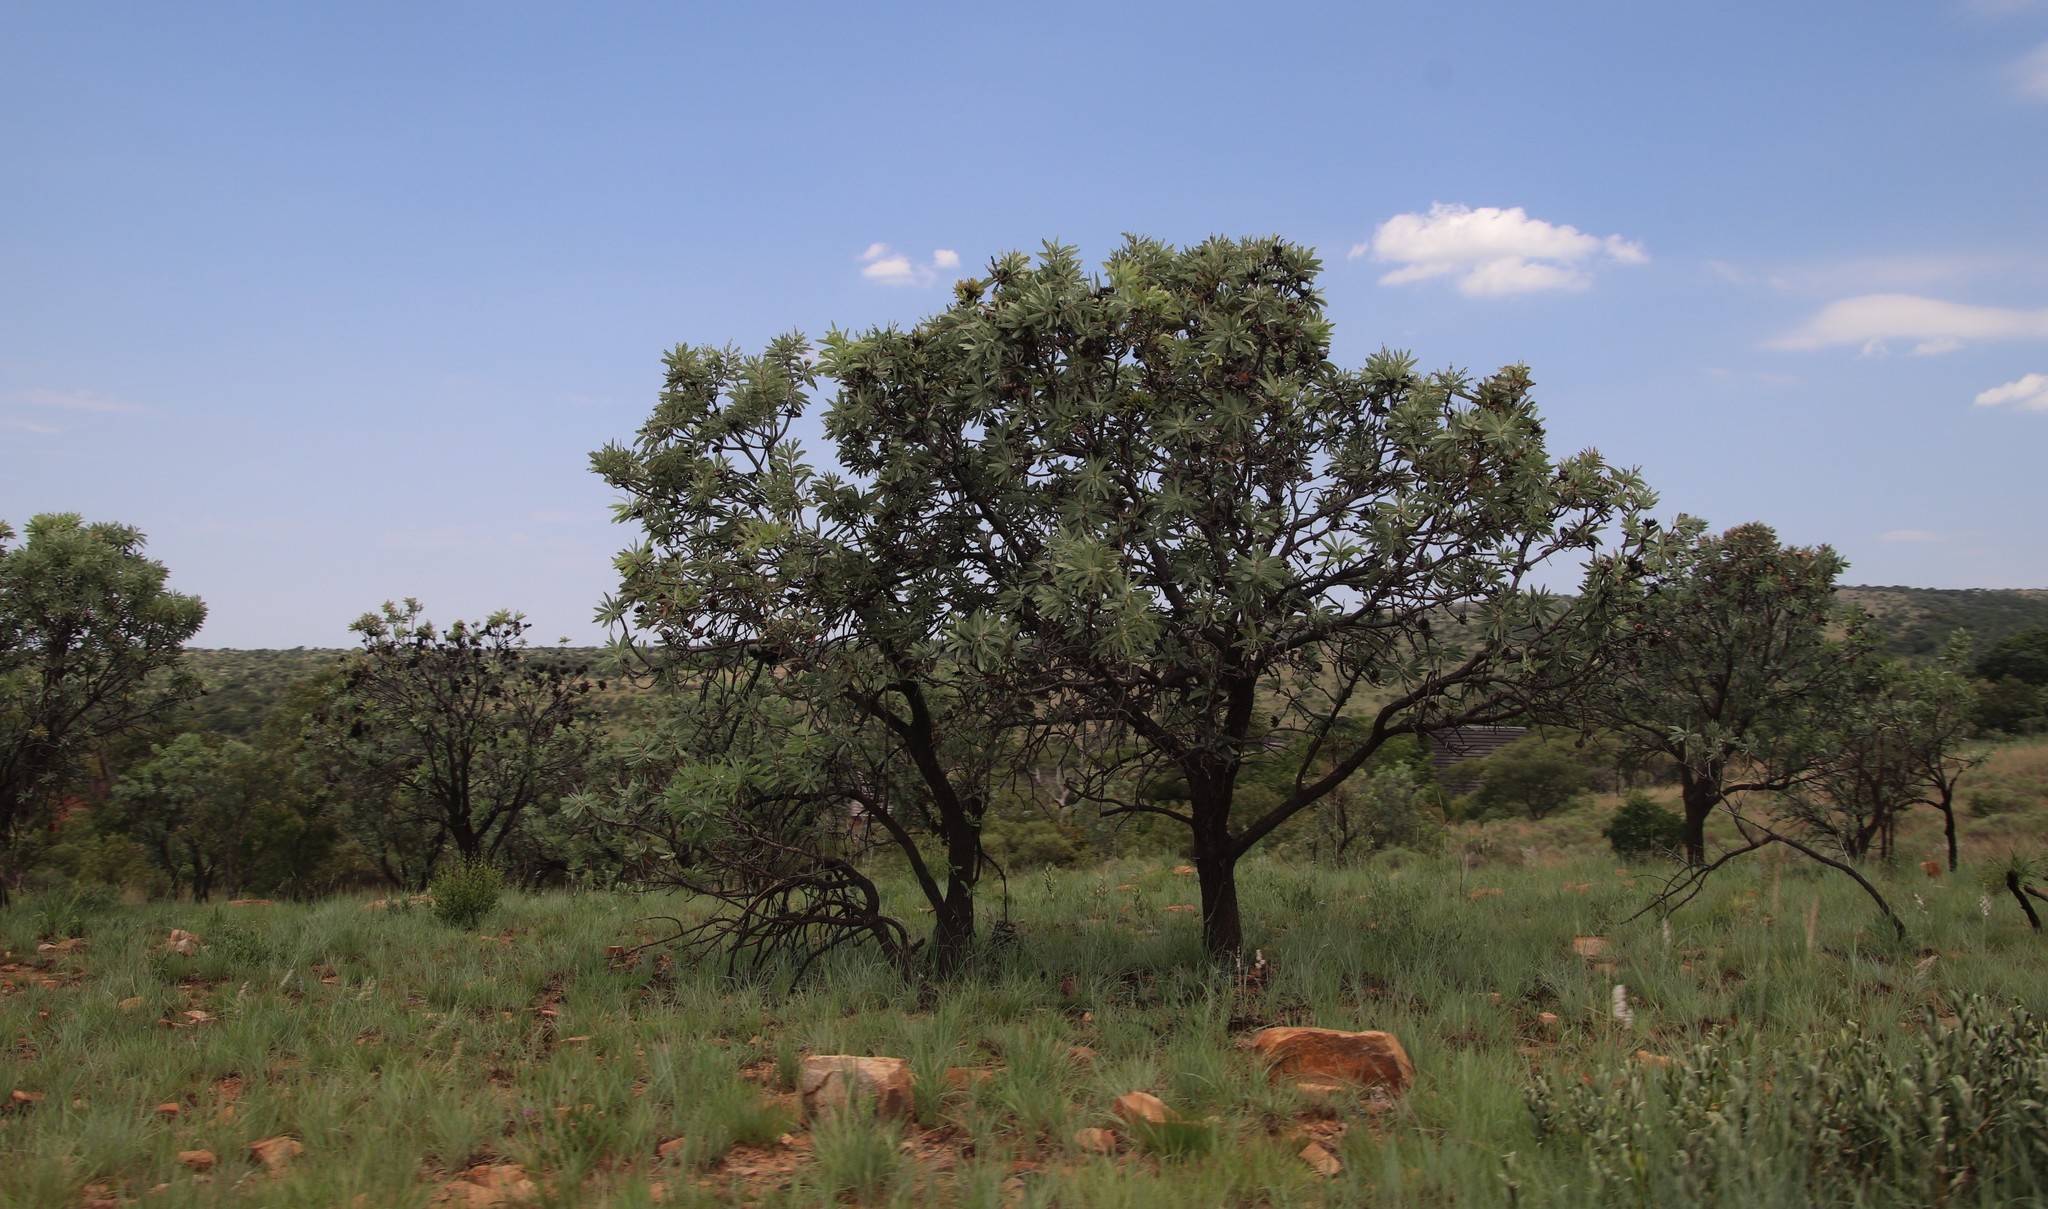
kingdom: Plantae
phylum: Tracheophyta
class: Magnoliopsida
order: Proteales
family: Proteaceae
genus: Protea
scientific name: Protea caffra
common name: Common sugarbush
